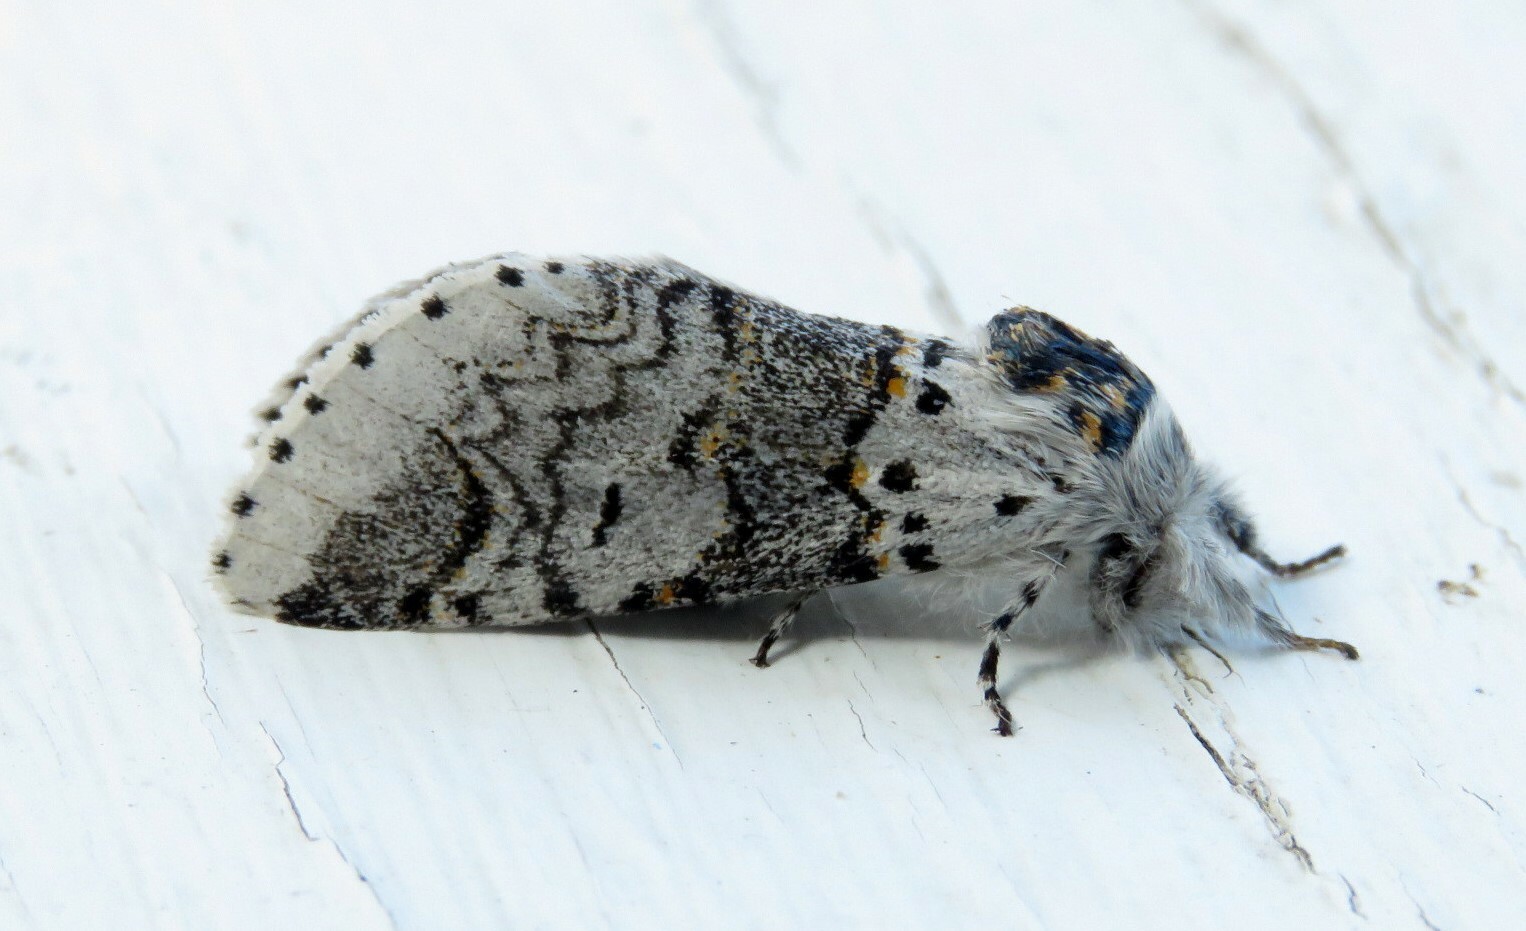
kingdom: Animalia
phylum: Arthropoda
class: Insecta
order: Lepidoptera
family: Notodontidae
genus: Furcula
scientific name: Furcula occidentalis
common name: Western furcula moth
